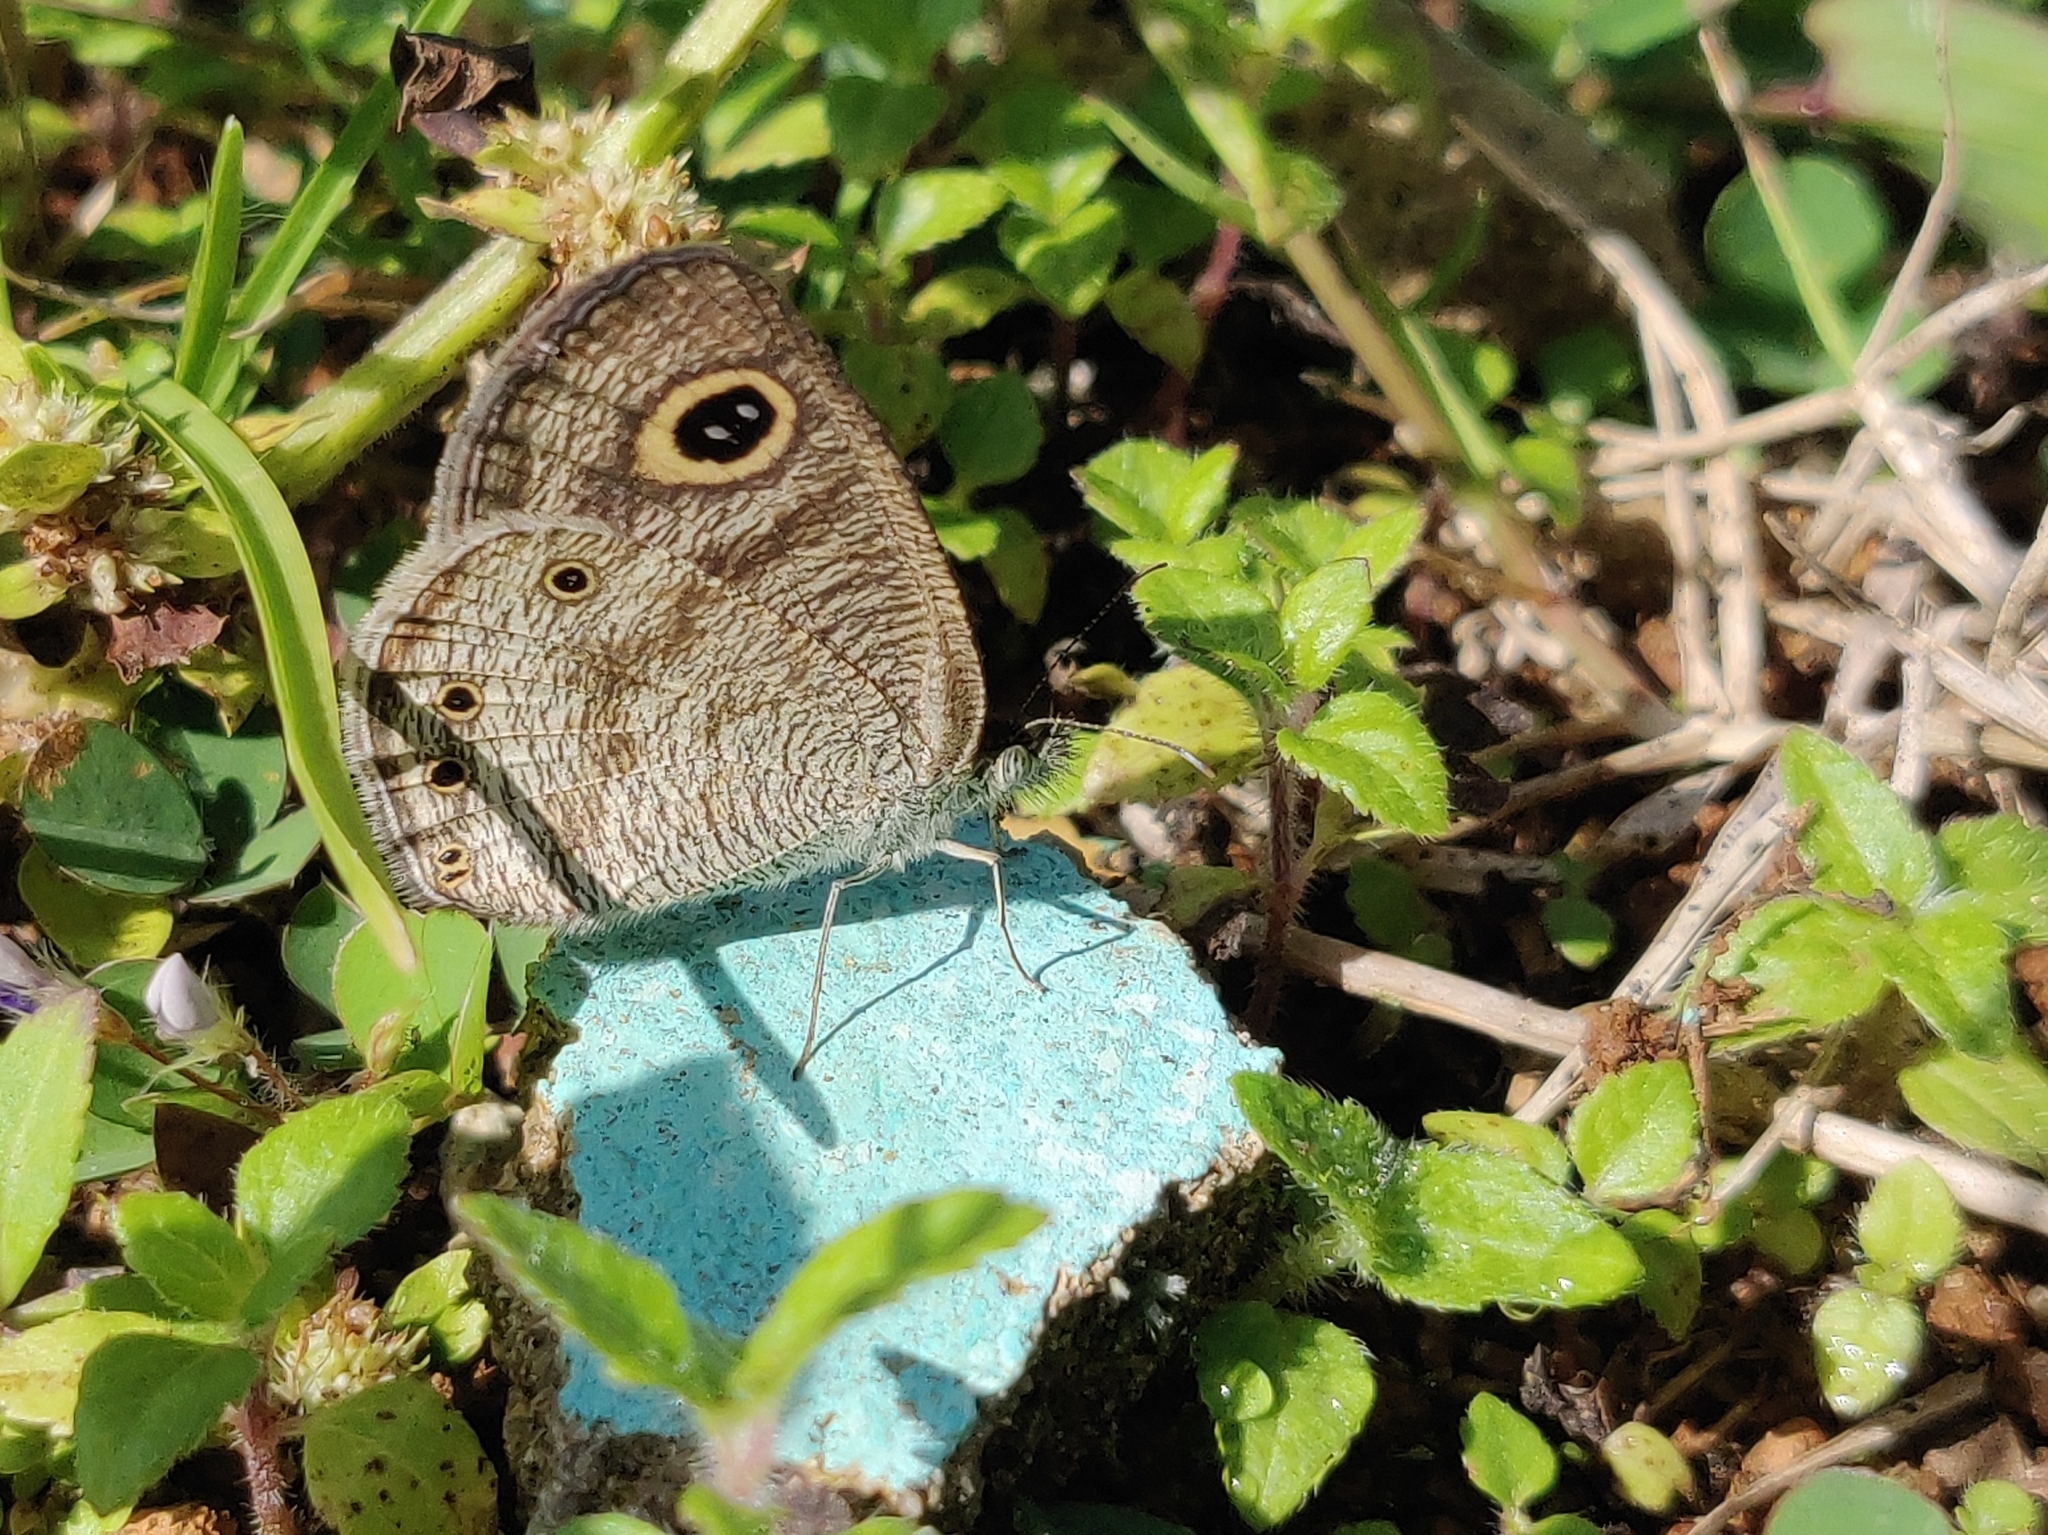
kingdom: Animalia
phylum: Arthropoda
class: Insecta
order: Lepidoptera
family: Nymphalidae
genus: Ypthima
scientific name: Ypthima huebneri
